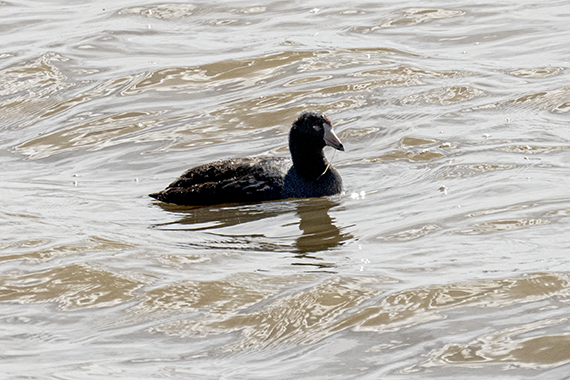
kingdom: Animalia
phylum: Chordata
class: Aves
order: Gruiformes
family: Rallidae
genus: Fulica
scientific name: Fulica americana
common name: American coot
